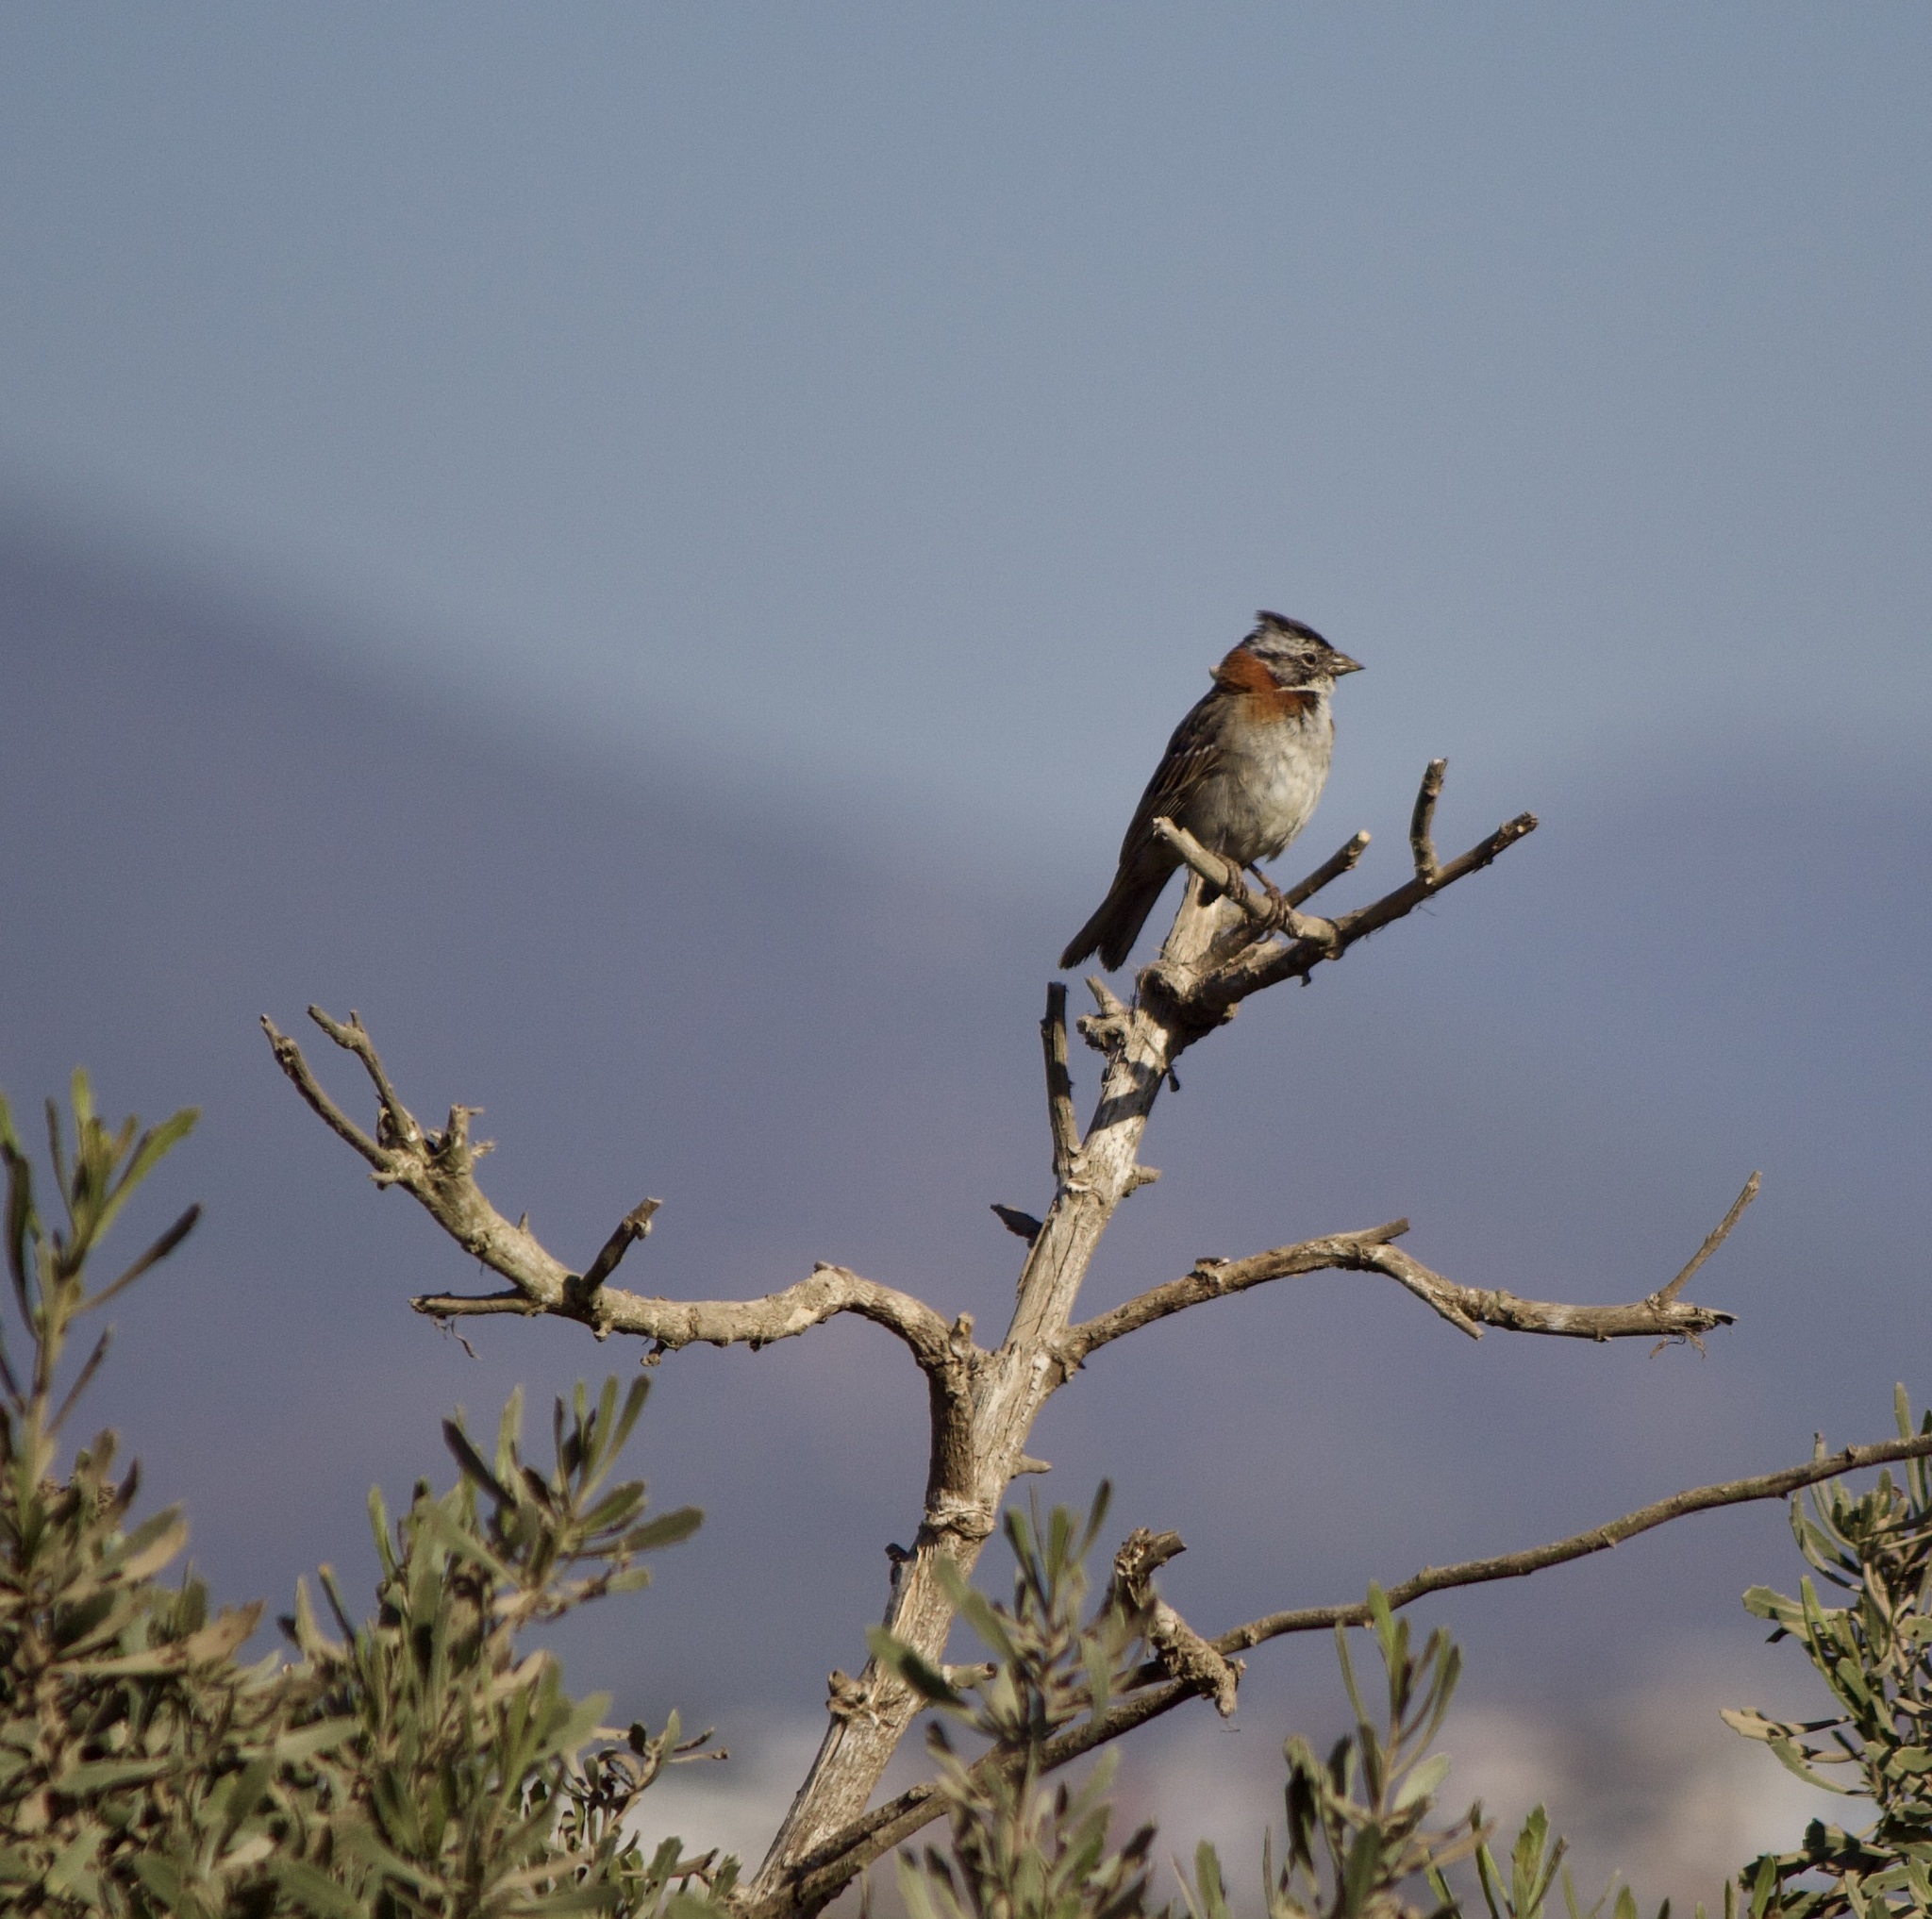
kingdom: Animalia
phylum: Chordata
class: Aves
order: Passeriformes
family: Passerellidae
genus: Zonotrichia
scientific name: Zonotrichia capensis
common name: Rufous-collared sparrow
